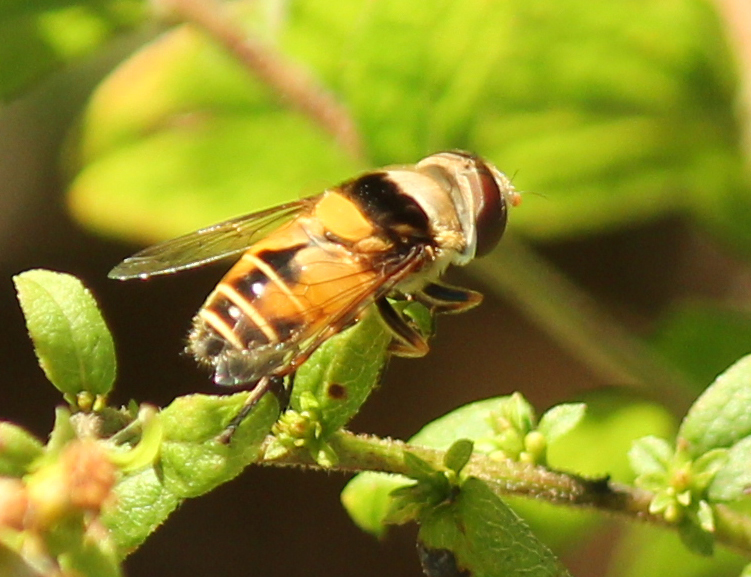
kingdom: Animalia
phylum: Arthropoda
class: Insecta
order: Diptera
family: Syrphidae
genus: Palpada
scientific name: Palpada pusilla
